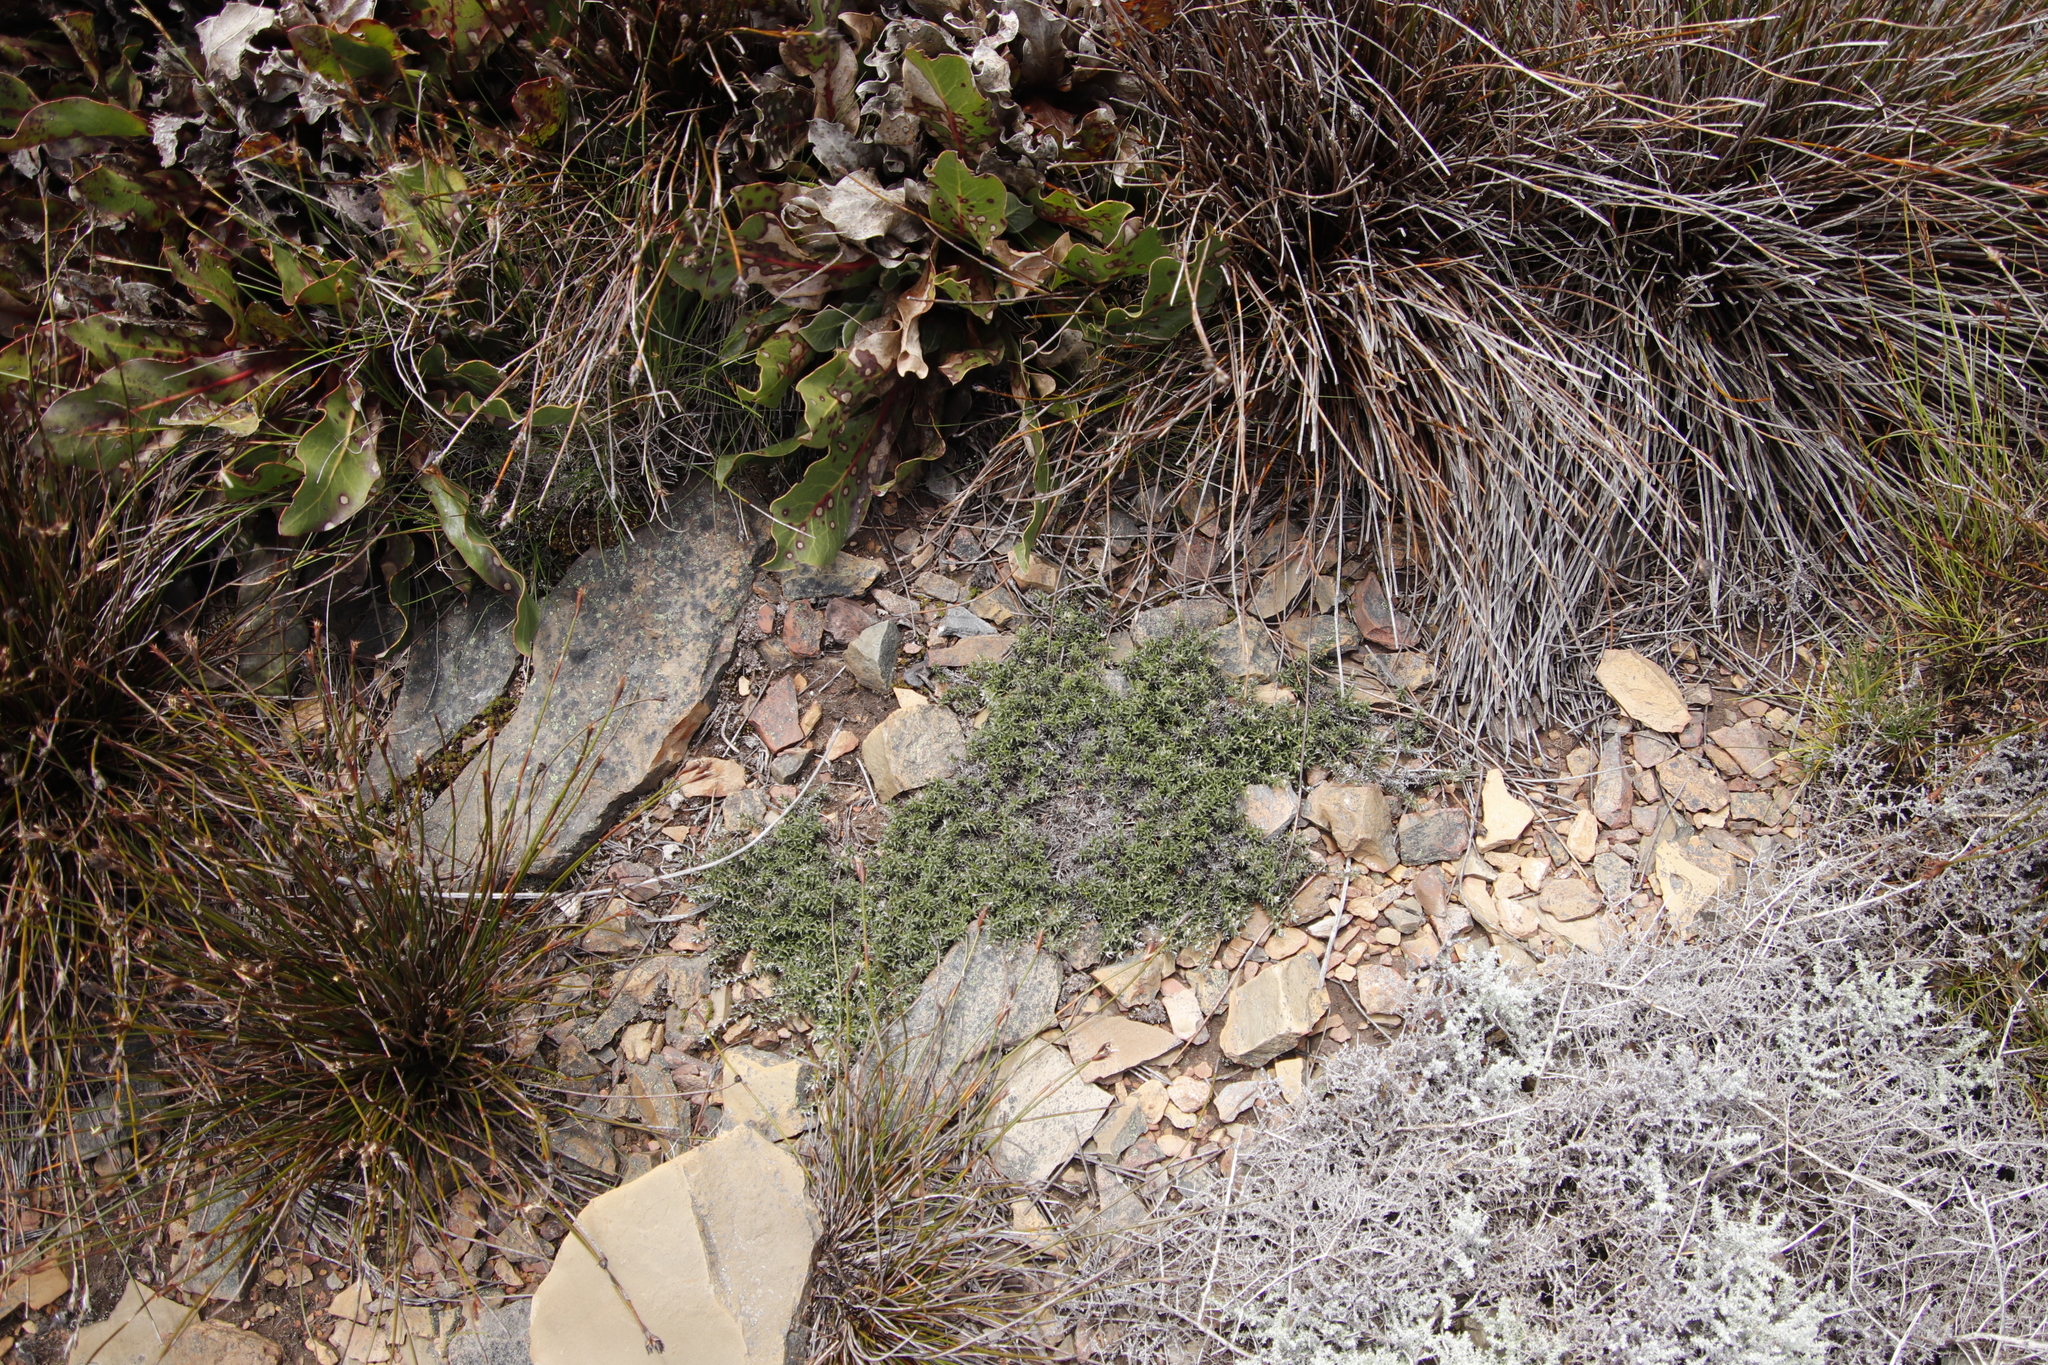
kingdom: Plantae
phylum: Tracheophyta
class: Magnoliopsida
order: Asterales
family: Asteraceae
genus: Stoebe
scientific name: Stoebe prostrata
